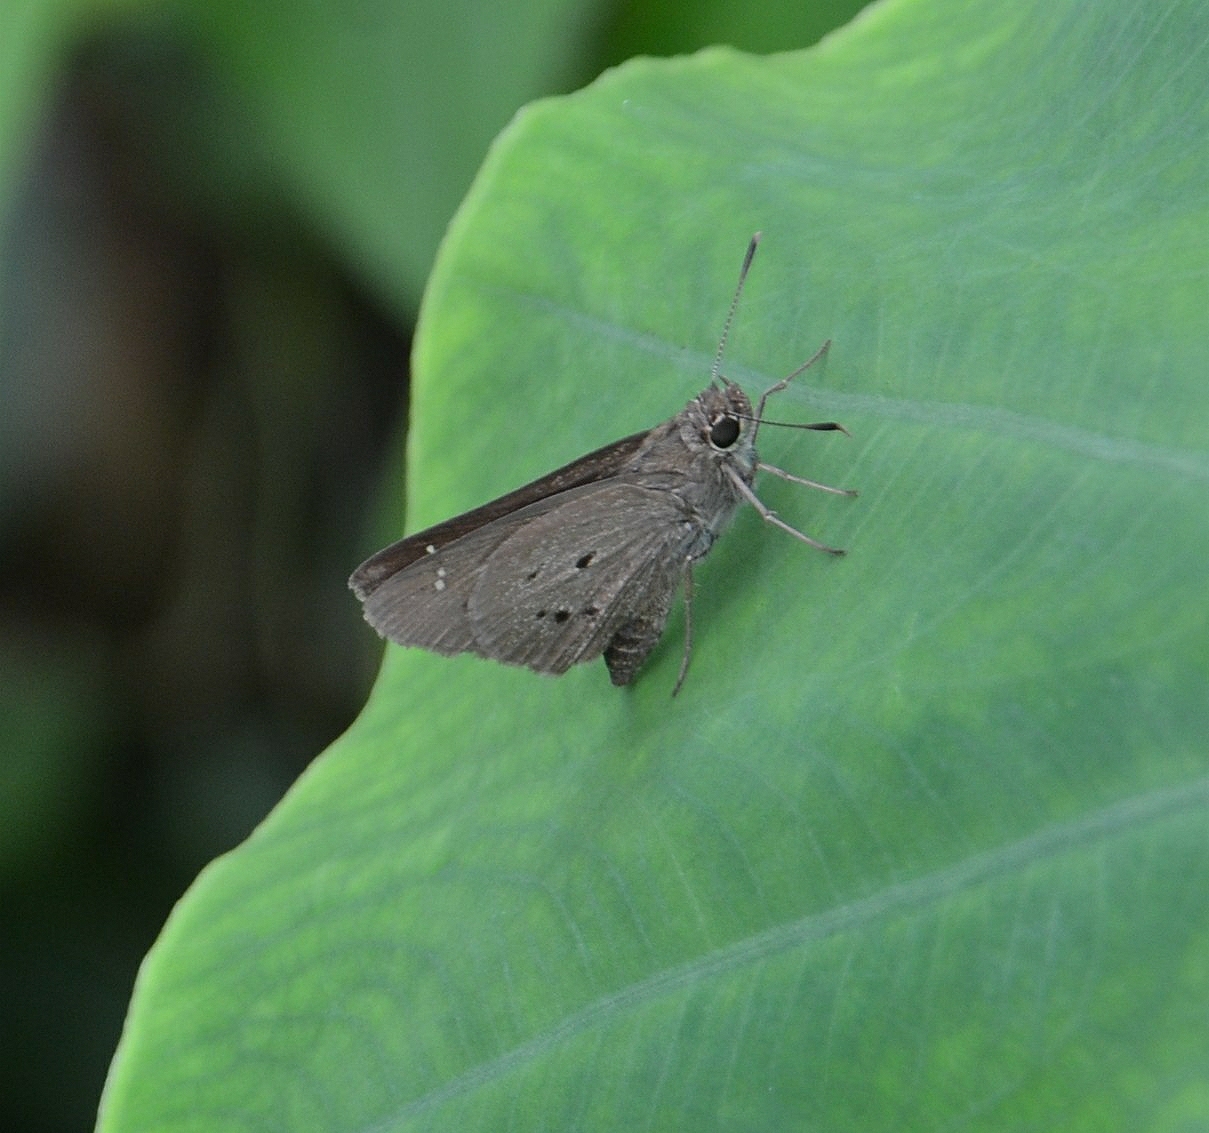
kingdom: Animalia
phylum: Arthropoda
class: Insecta
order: Lepidoptera
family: Hesperiidae
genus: Suastus
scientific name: Suastus gremius
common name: Indian palm bob
